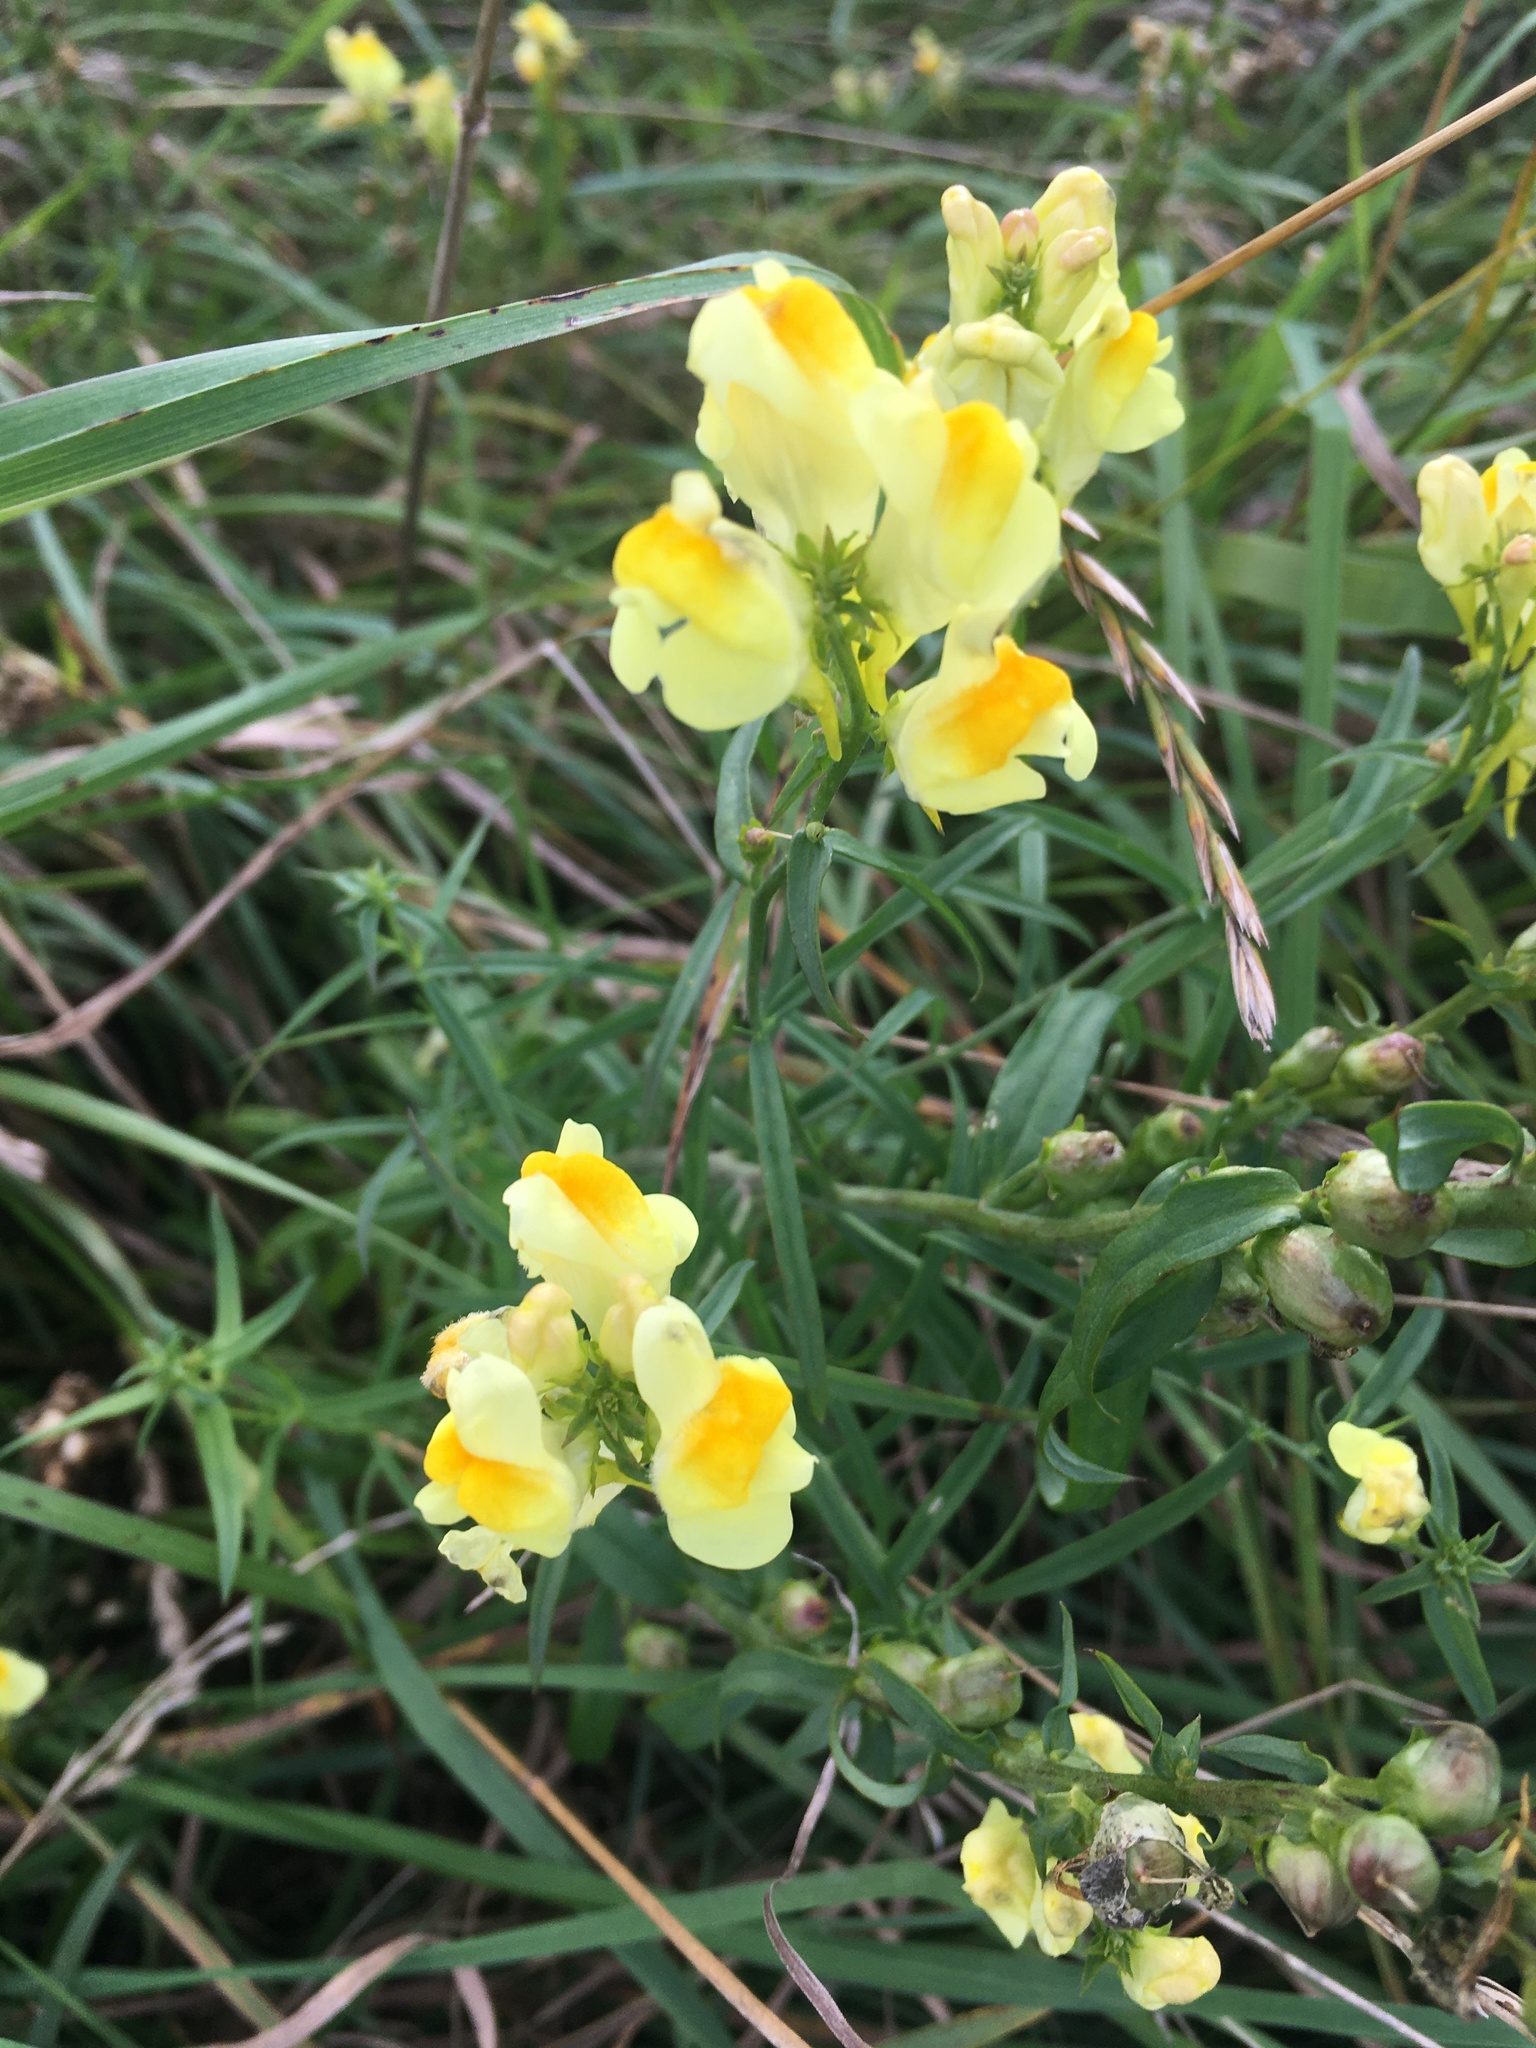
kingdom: Plantae
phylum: Tracheophyta
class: Magnoliopsida
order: Lamiales
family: Plantaginaceae
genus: Linaria
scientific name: Linaria vulgaris
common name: Butter and eggs
